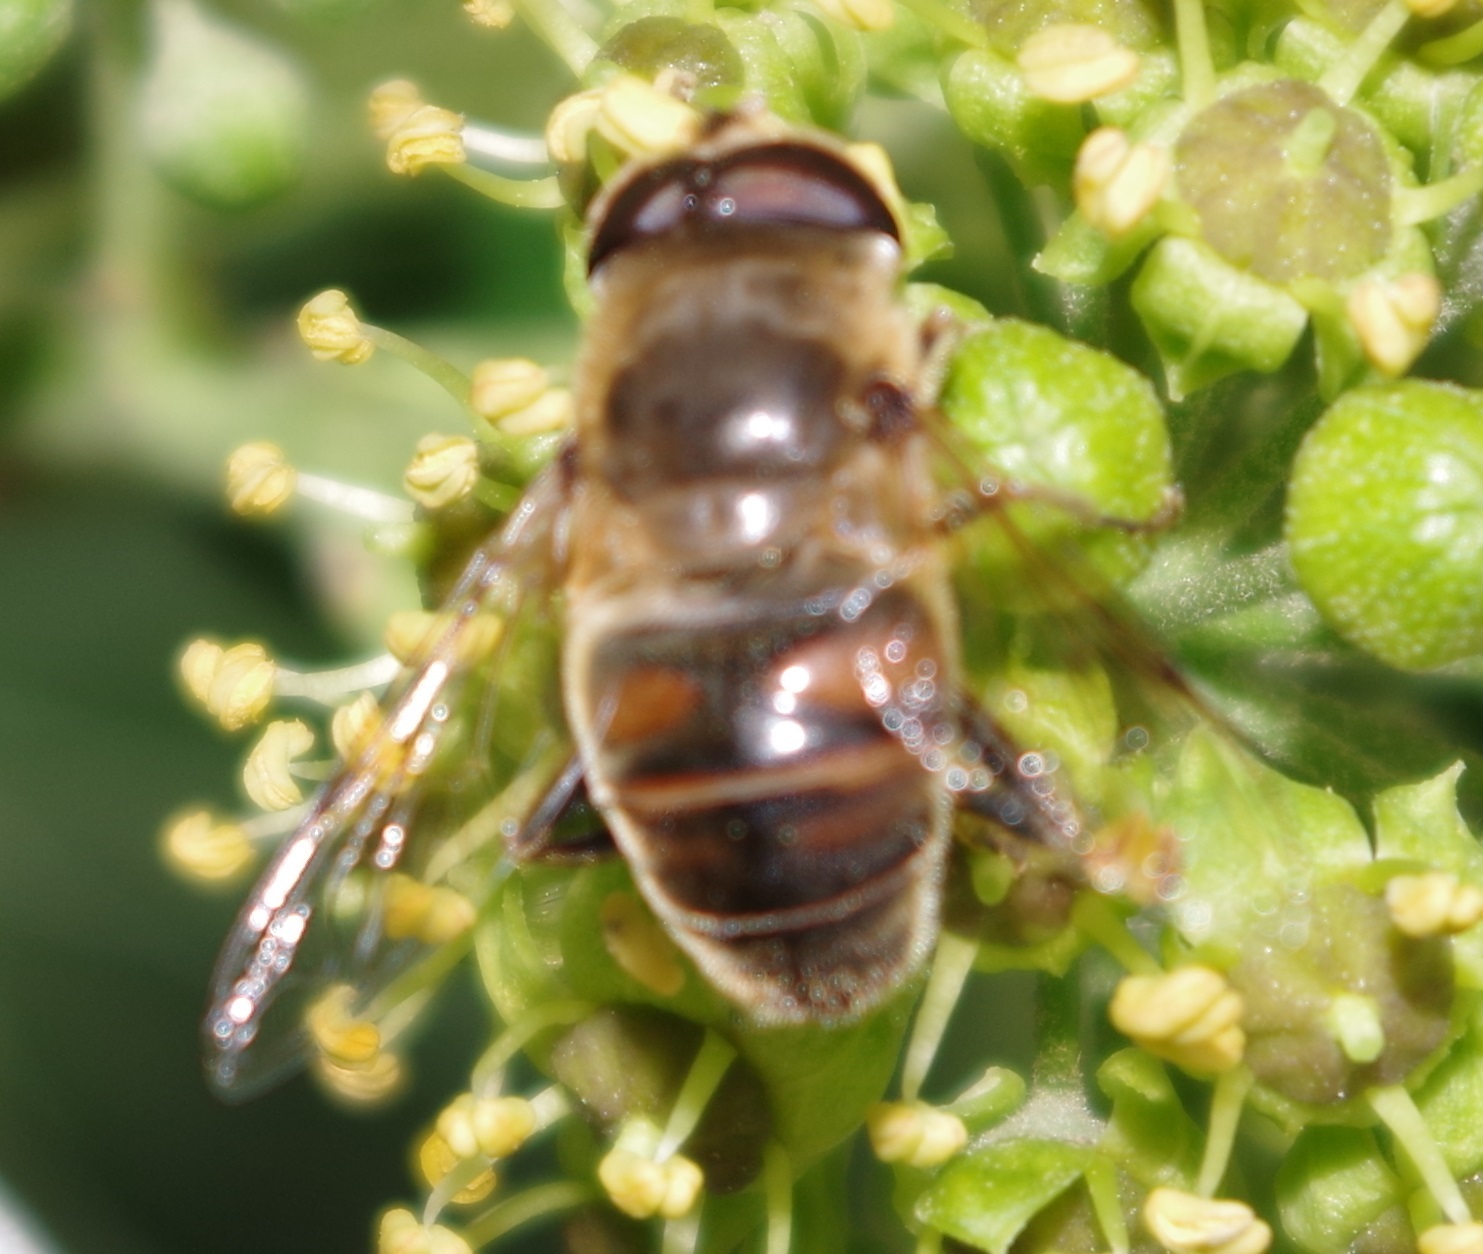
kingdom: Animalia
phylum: Arthropoda
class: Insecta
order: Diptera
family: Syrphidae
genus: Eristalis
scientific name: Eristalis tenax
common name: Drone fly
